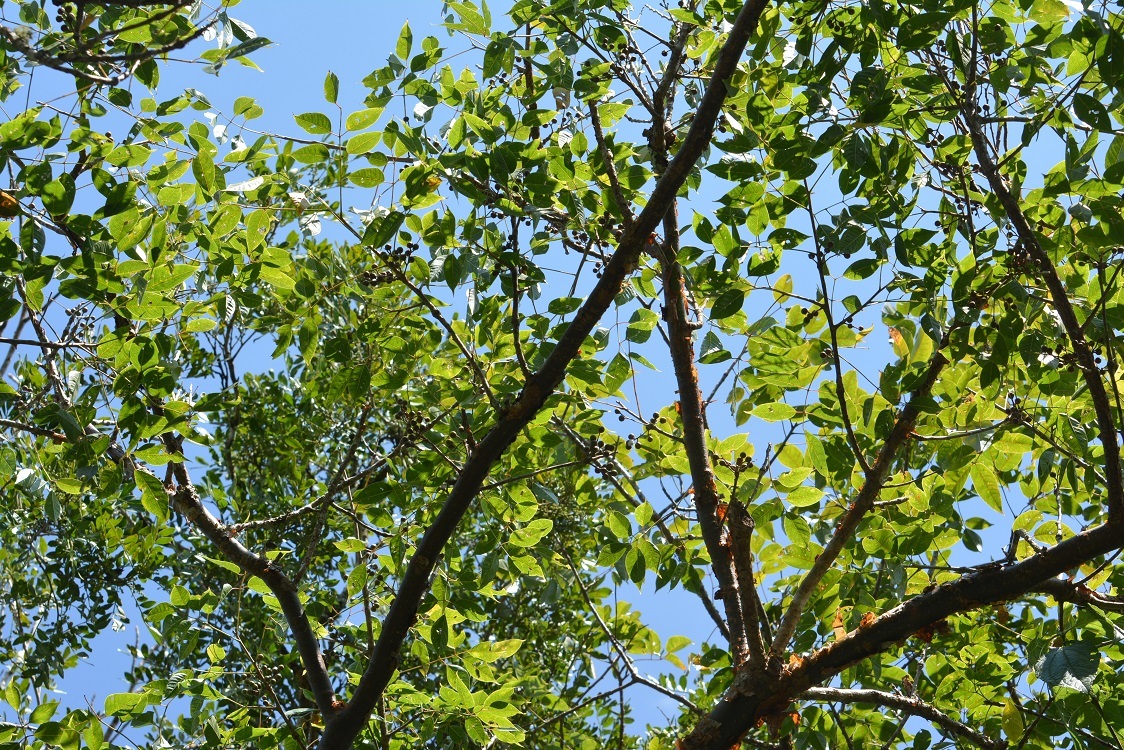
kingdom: Plantae
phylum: Tracheophyta
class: Magnoliopsida
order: Sapindales
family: Burseraceae
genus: Bursera
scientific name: Bursera simaruba
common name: Turpentine tree
